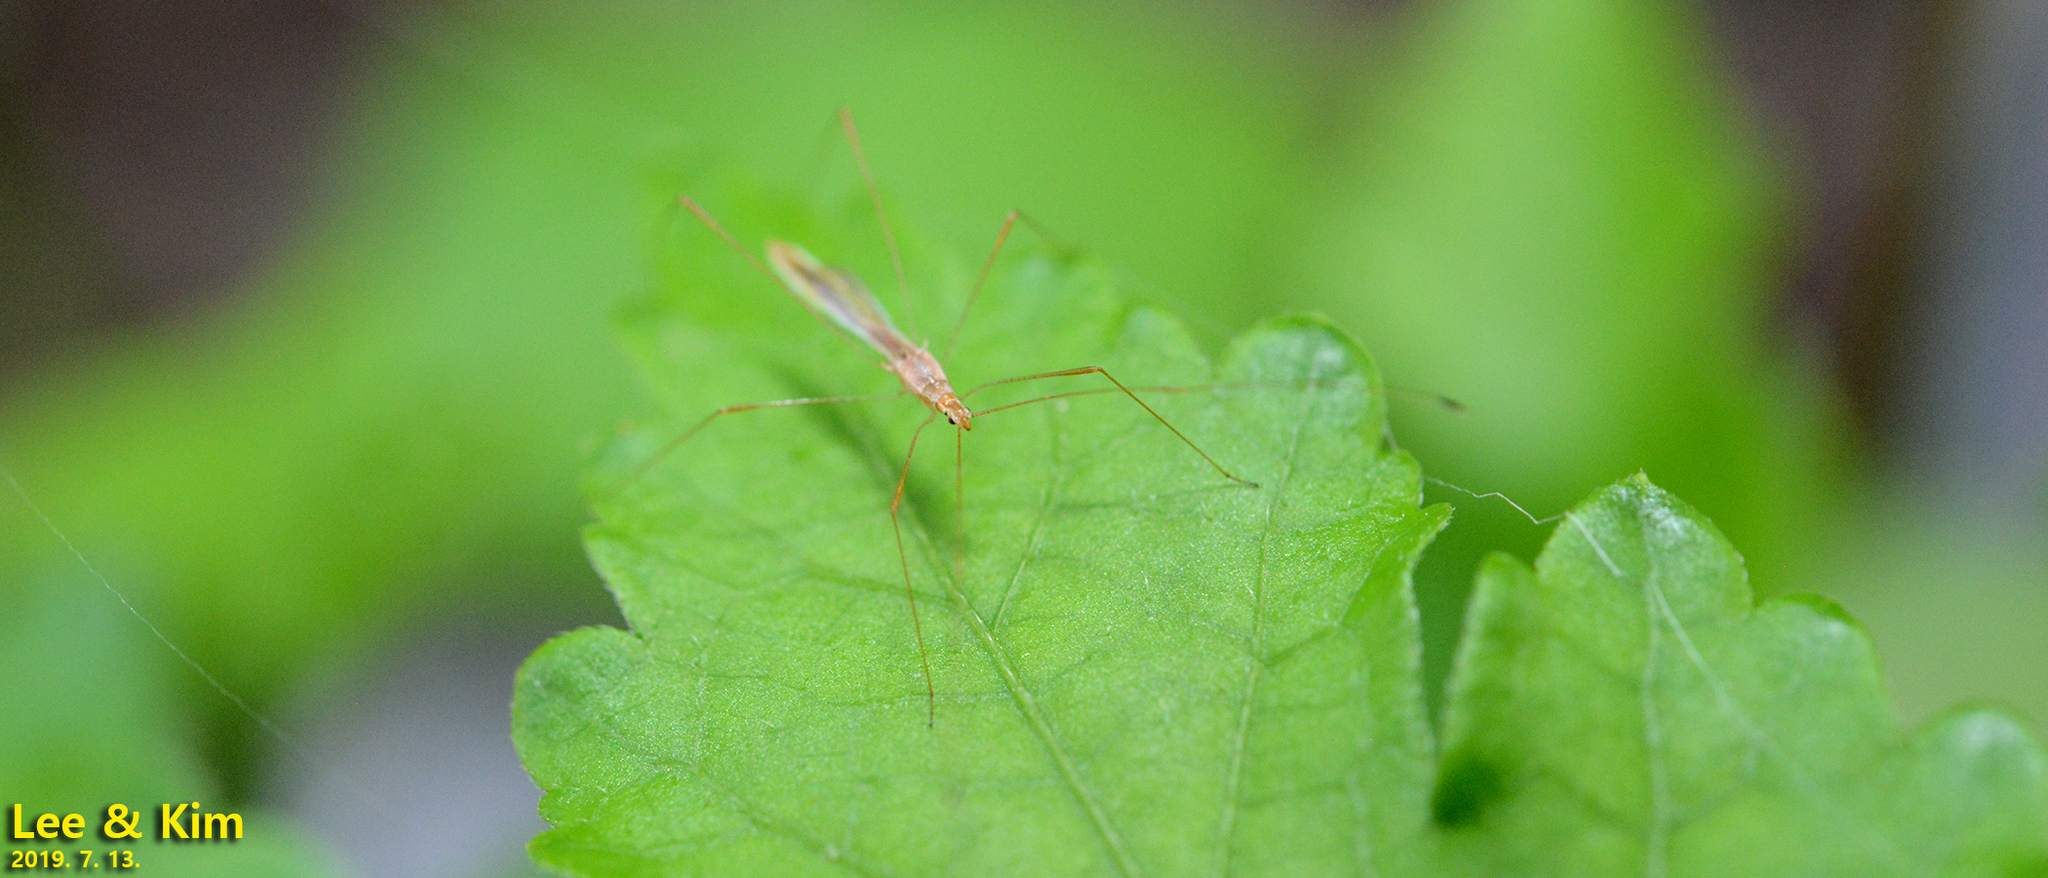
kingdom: Animalia
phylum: Arthropoda
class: Insecta
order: Hemiptera
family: Berytidae
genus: Yemma
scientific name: Yemma exilis
